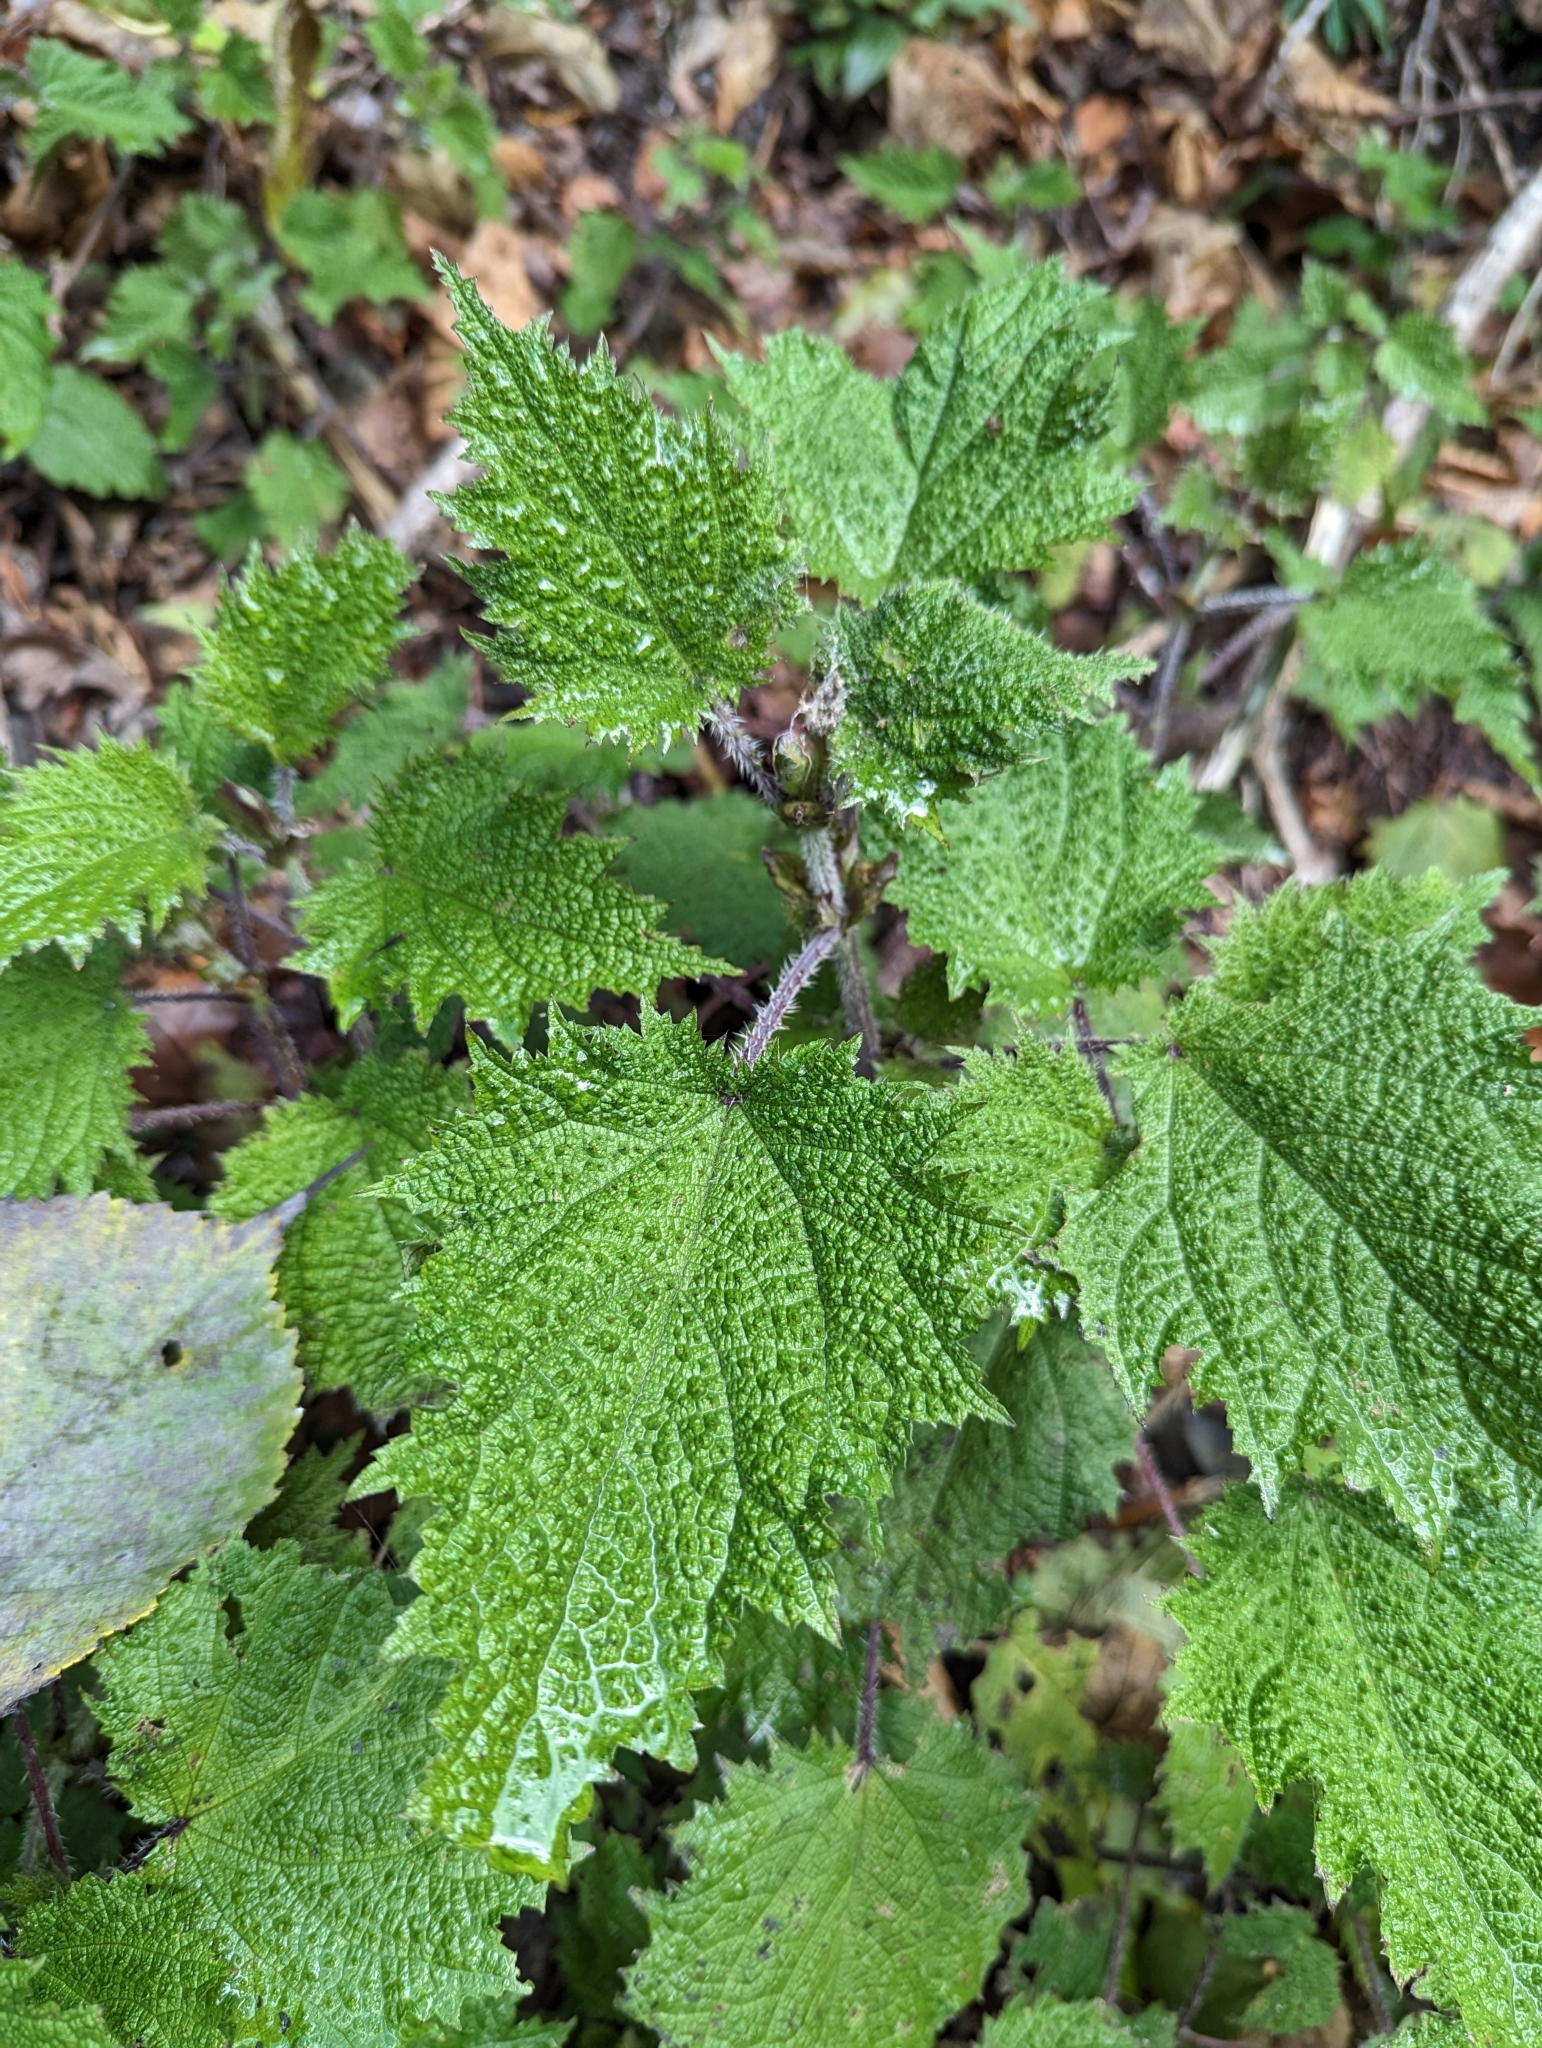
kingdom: Plantae
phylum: Tracheophyta
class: Magnoliopsida
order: Rosales
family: Urticaceae
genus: Urtica
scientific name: Urtica thunbergiana
